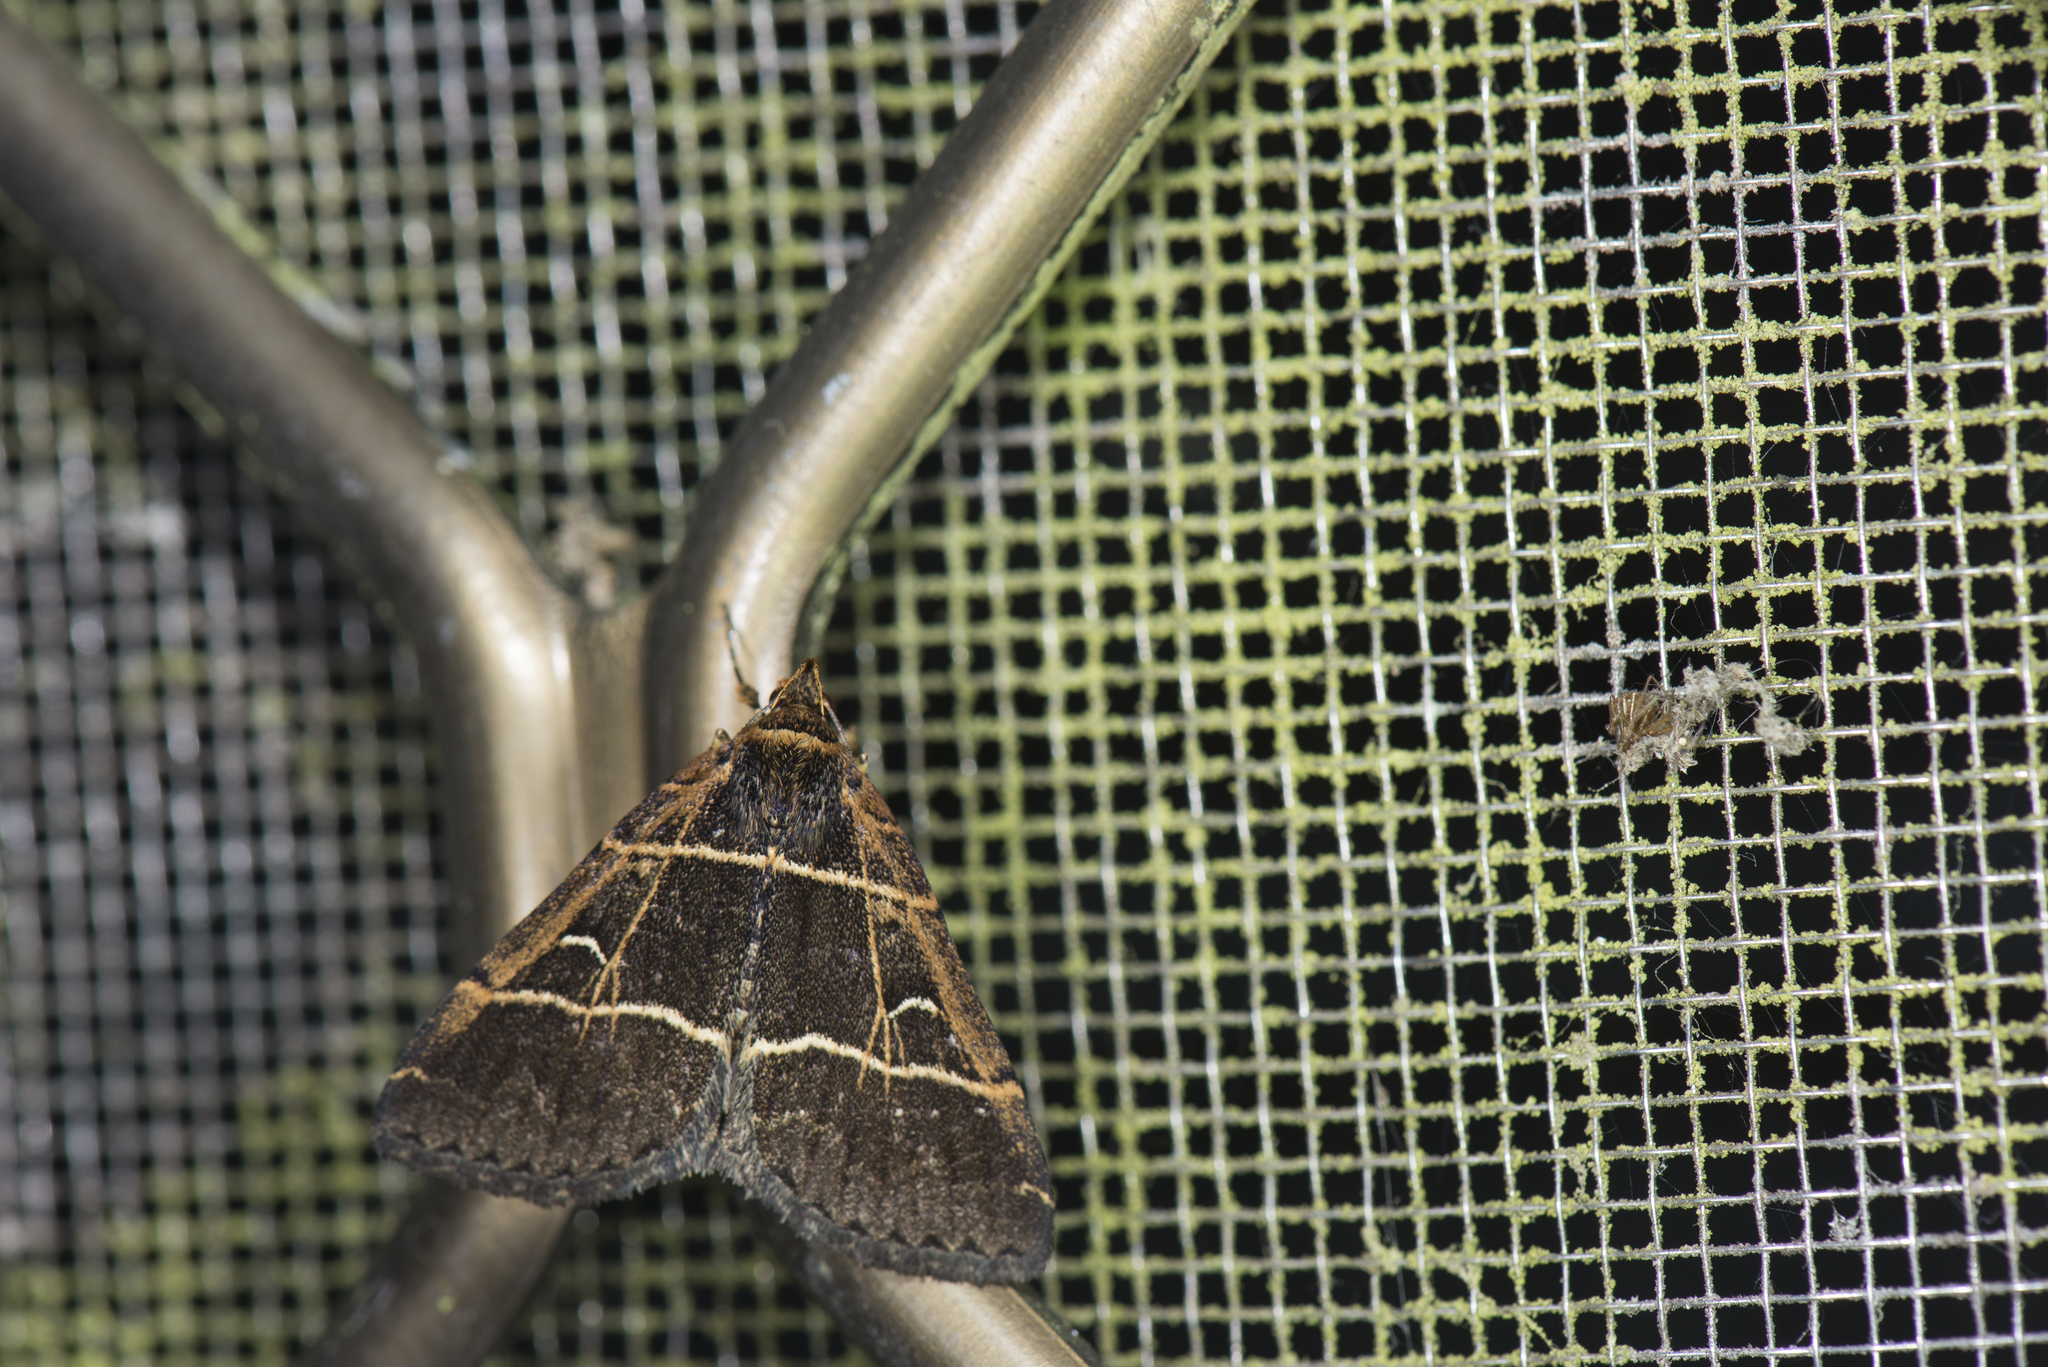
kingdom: Animalia
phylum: Arthropoda
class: Insecta
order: Lepidoptera
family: Erebidae
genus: Bertula
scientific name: Bertula bisectalis
